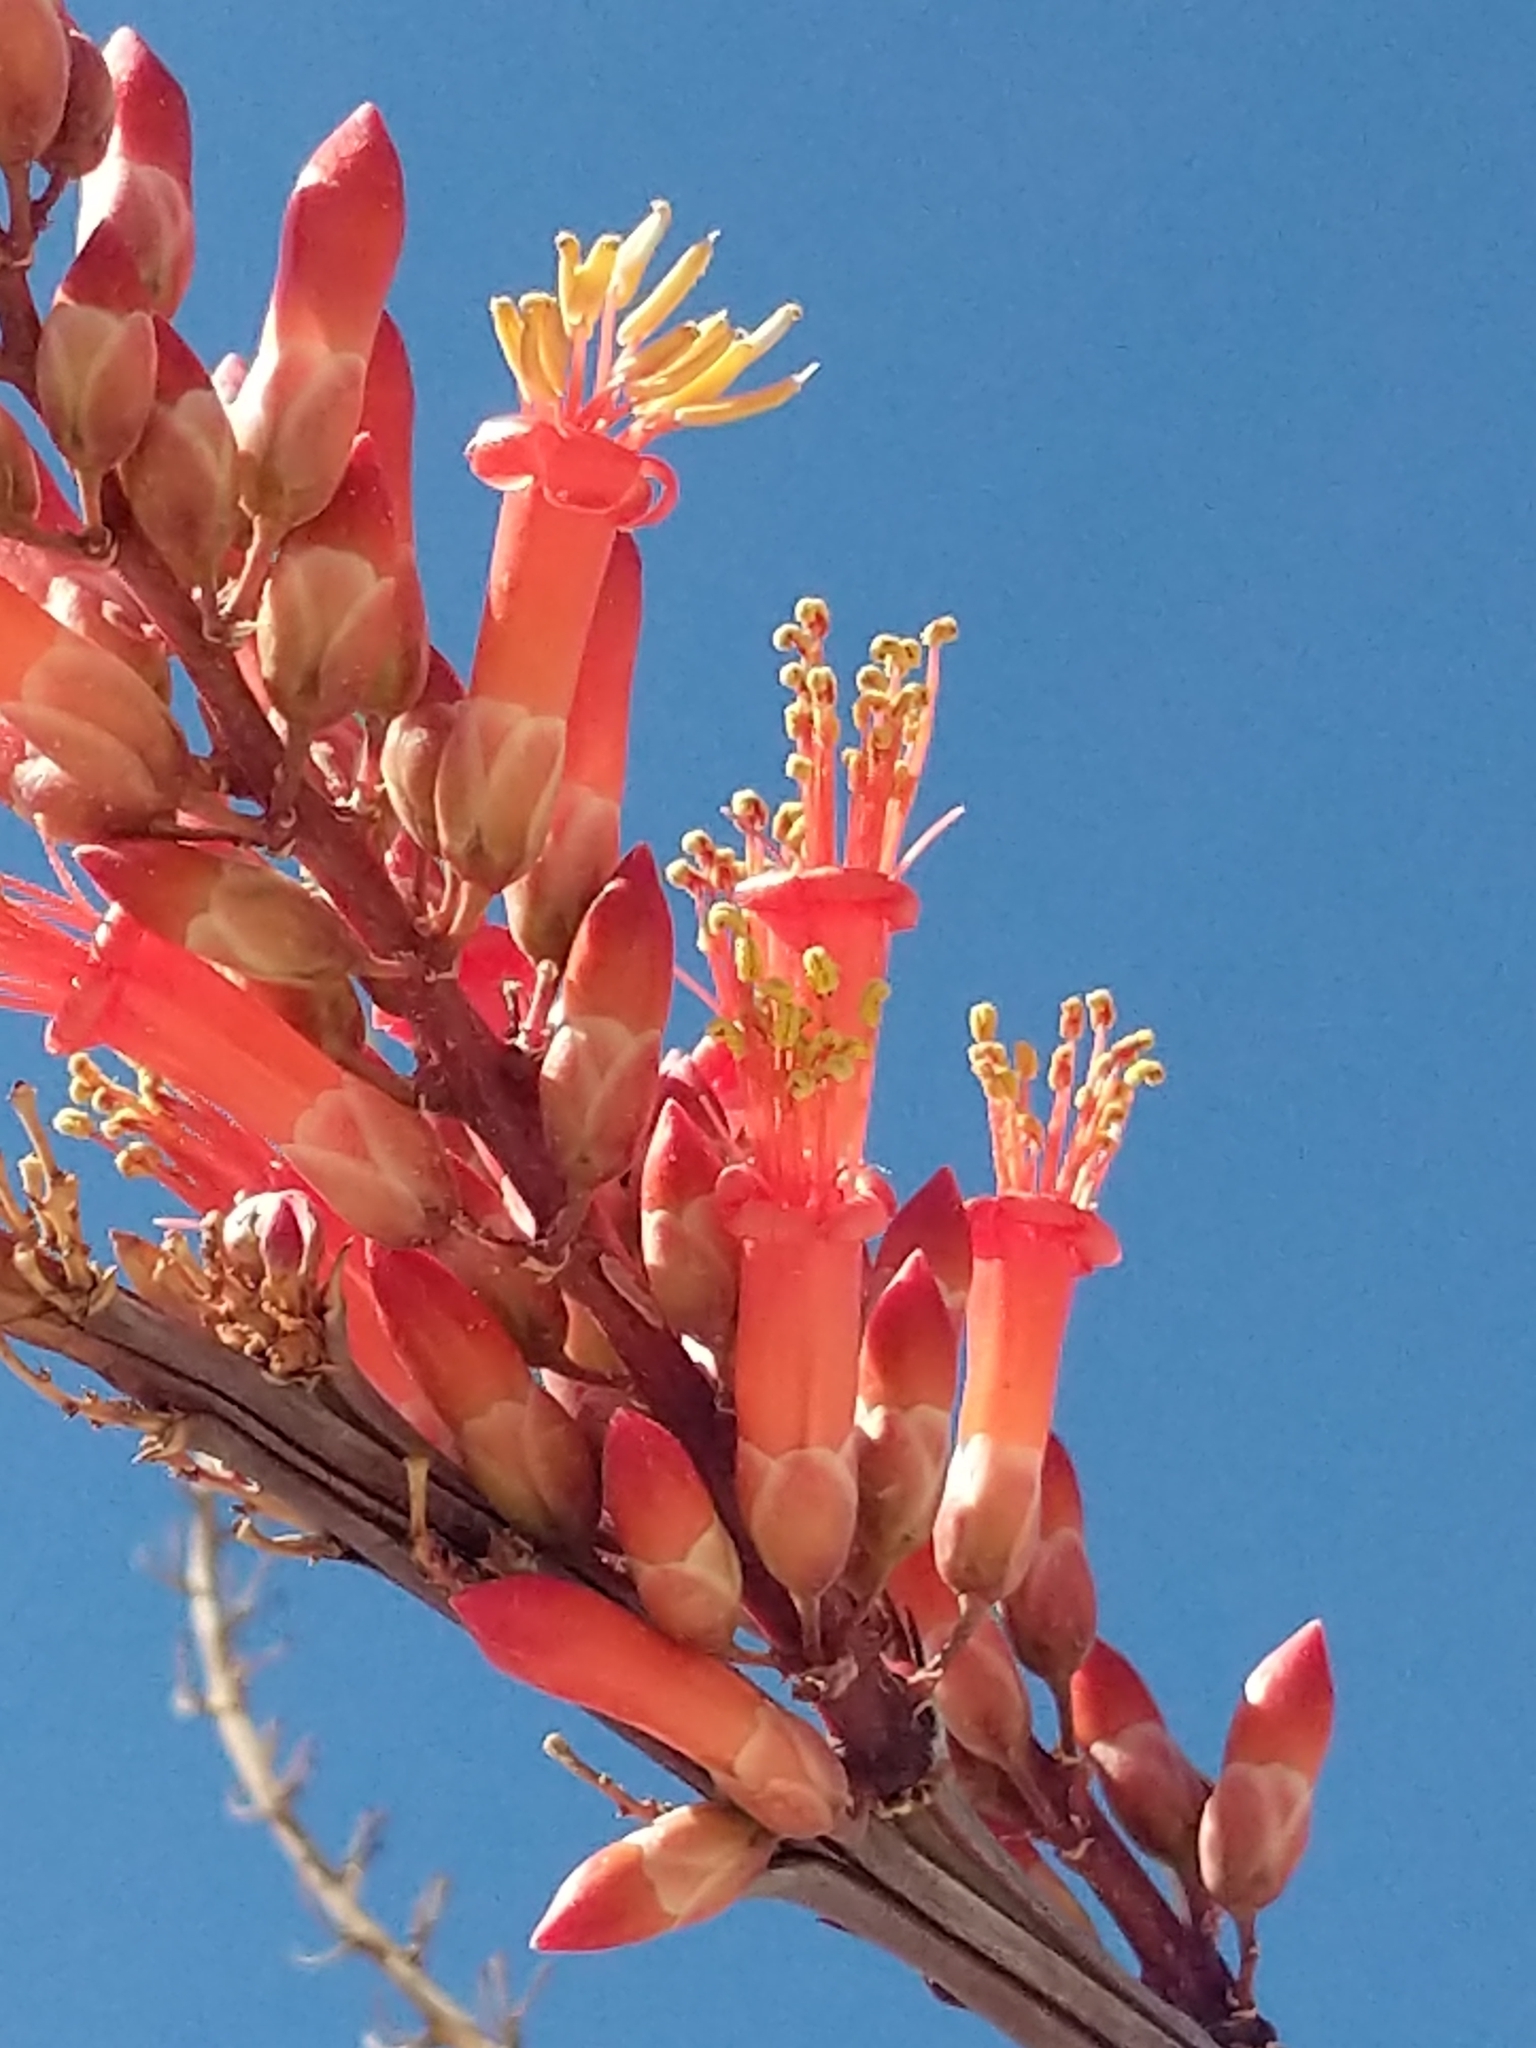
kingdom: Plantae
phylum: Tracheophyta
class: Magnoliopsida
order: Ericales
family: Fouquieriaceae
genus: Fouquieria
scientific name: Fouquieria splendens
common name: Vine-cactus
